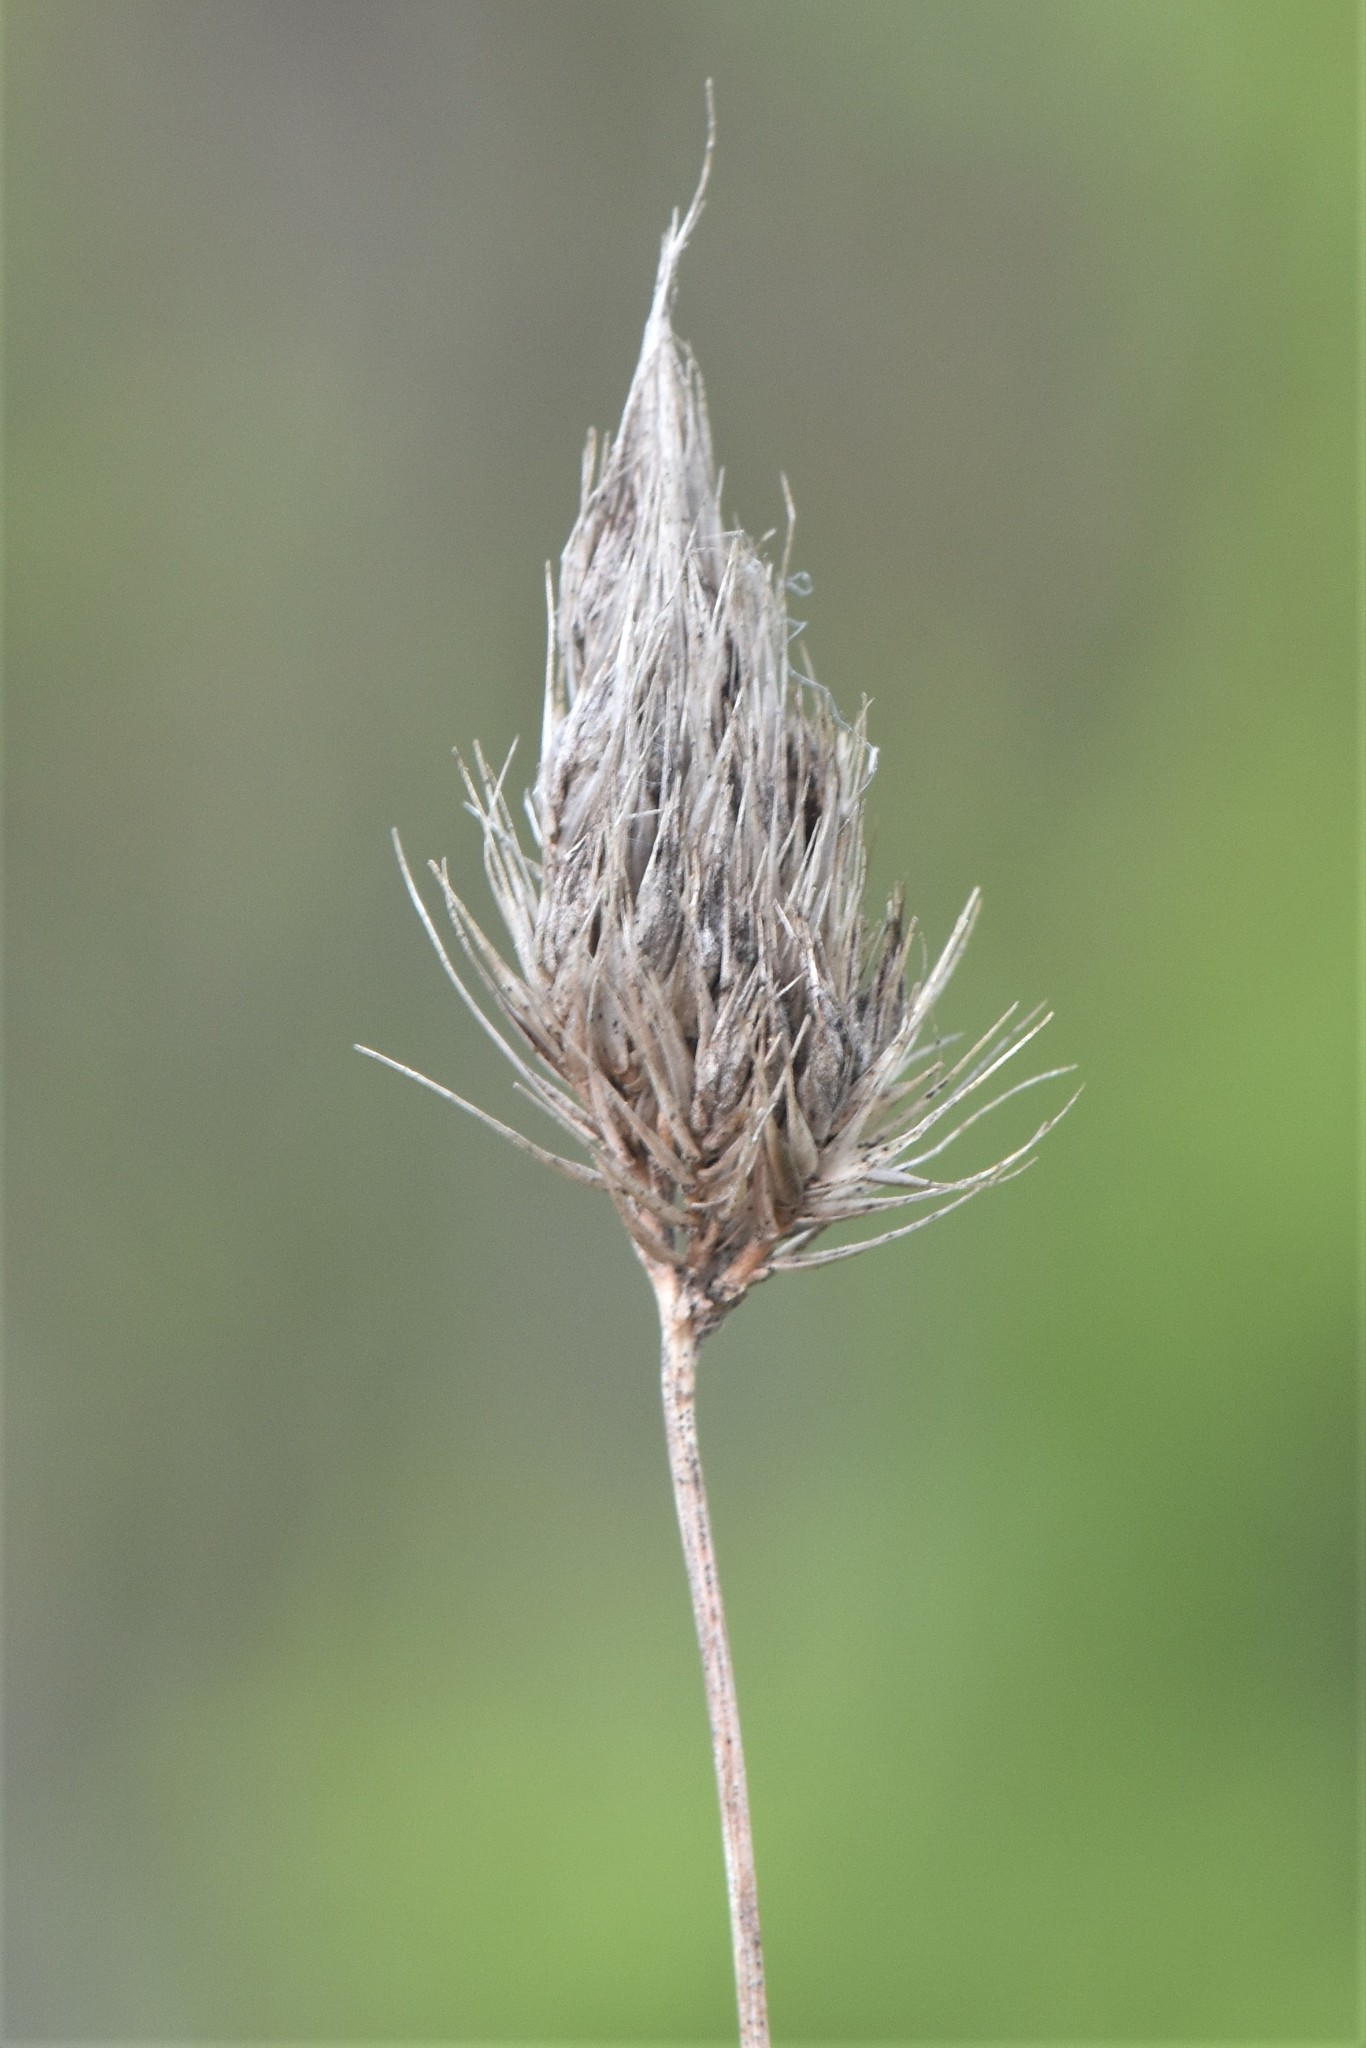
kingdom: Plantae
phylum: Tracheophyta
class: Liliopsida
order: Poales
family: Poaceae
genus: Cynosurus
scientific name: Cynosurus echinatus
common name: Rough dog's-tail
